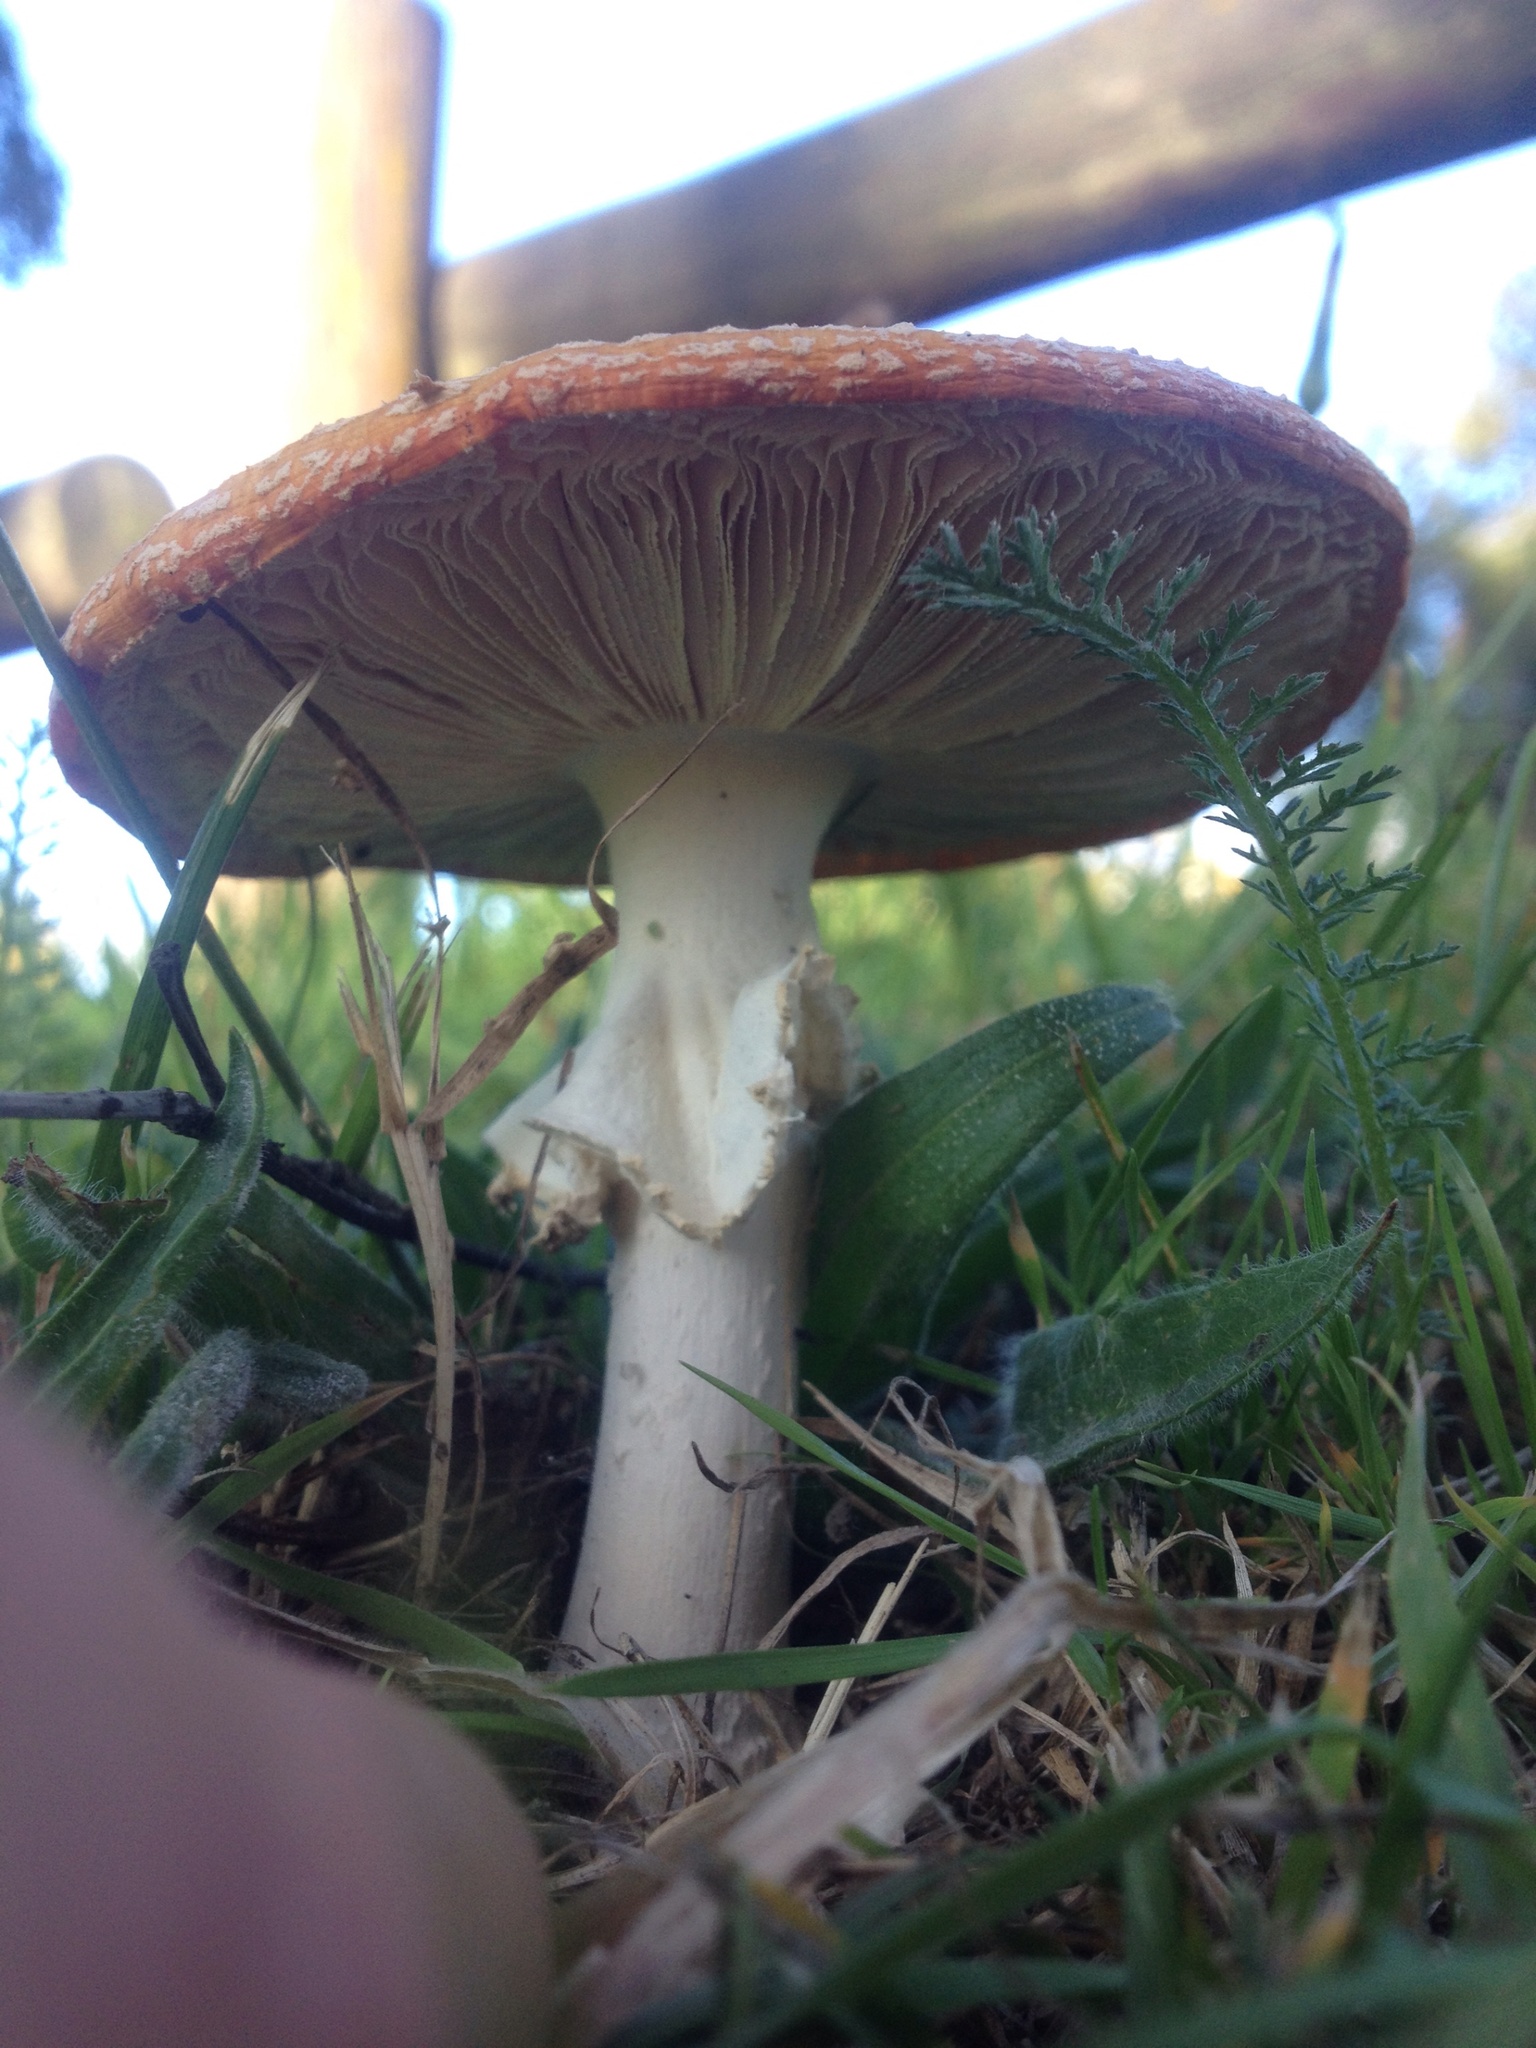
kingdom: Fungi
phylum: Basidiomycota
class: Agaricomycetes
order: Agaricales
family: Amanitaceae
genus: Amanita
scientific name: Amanita muscaria
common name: Fly agaric
